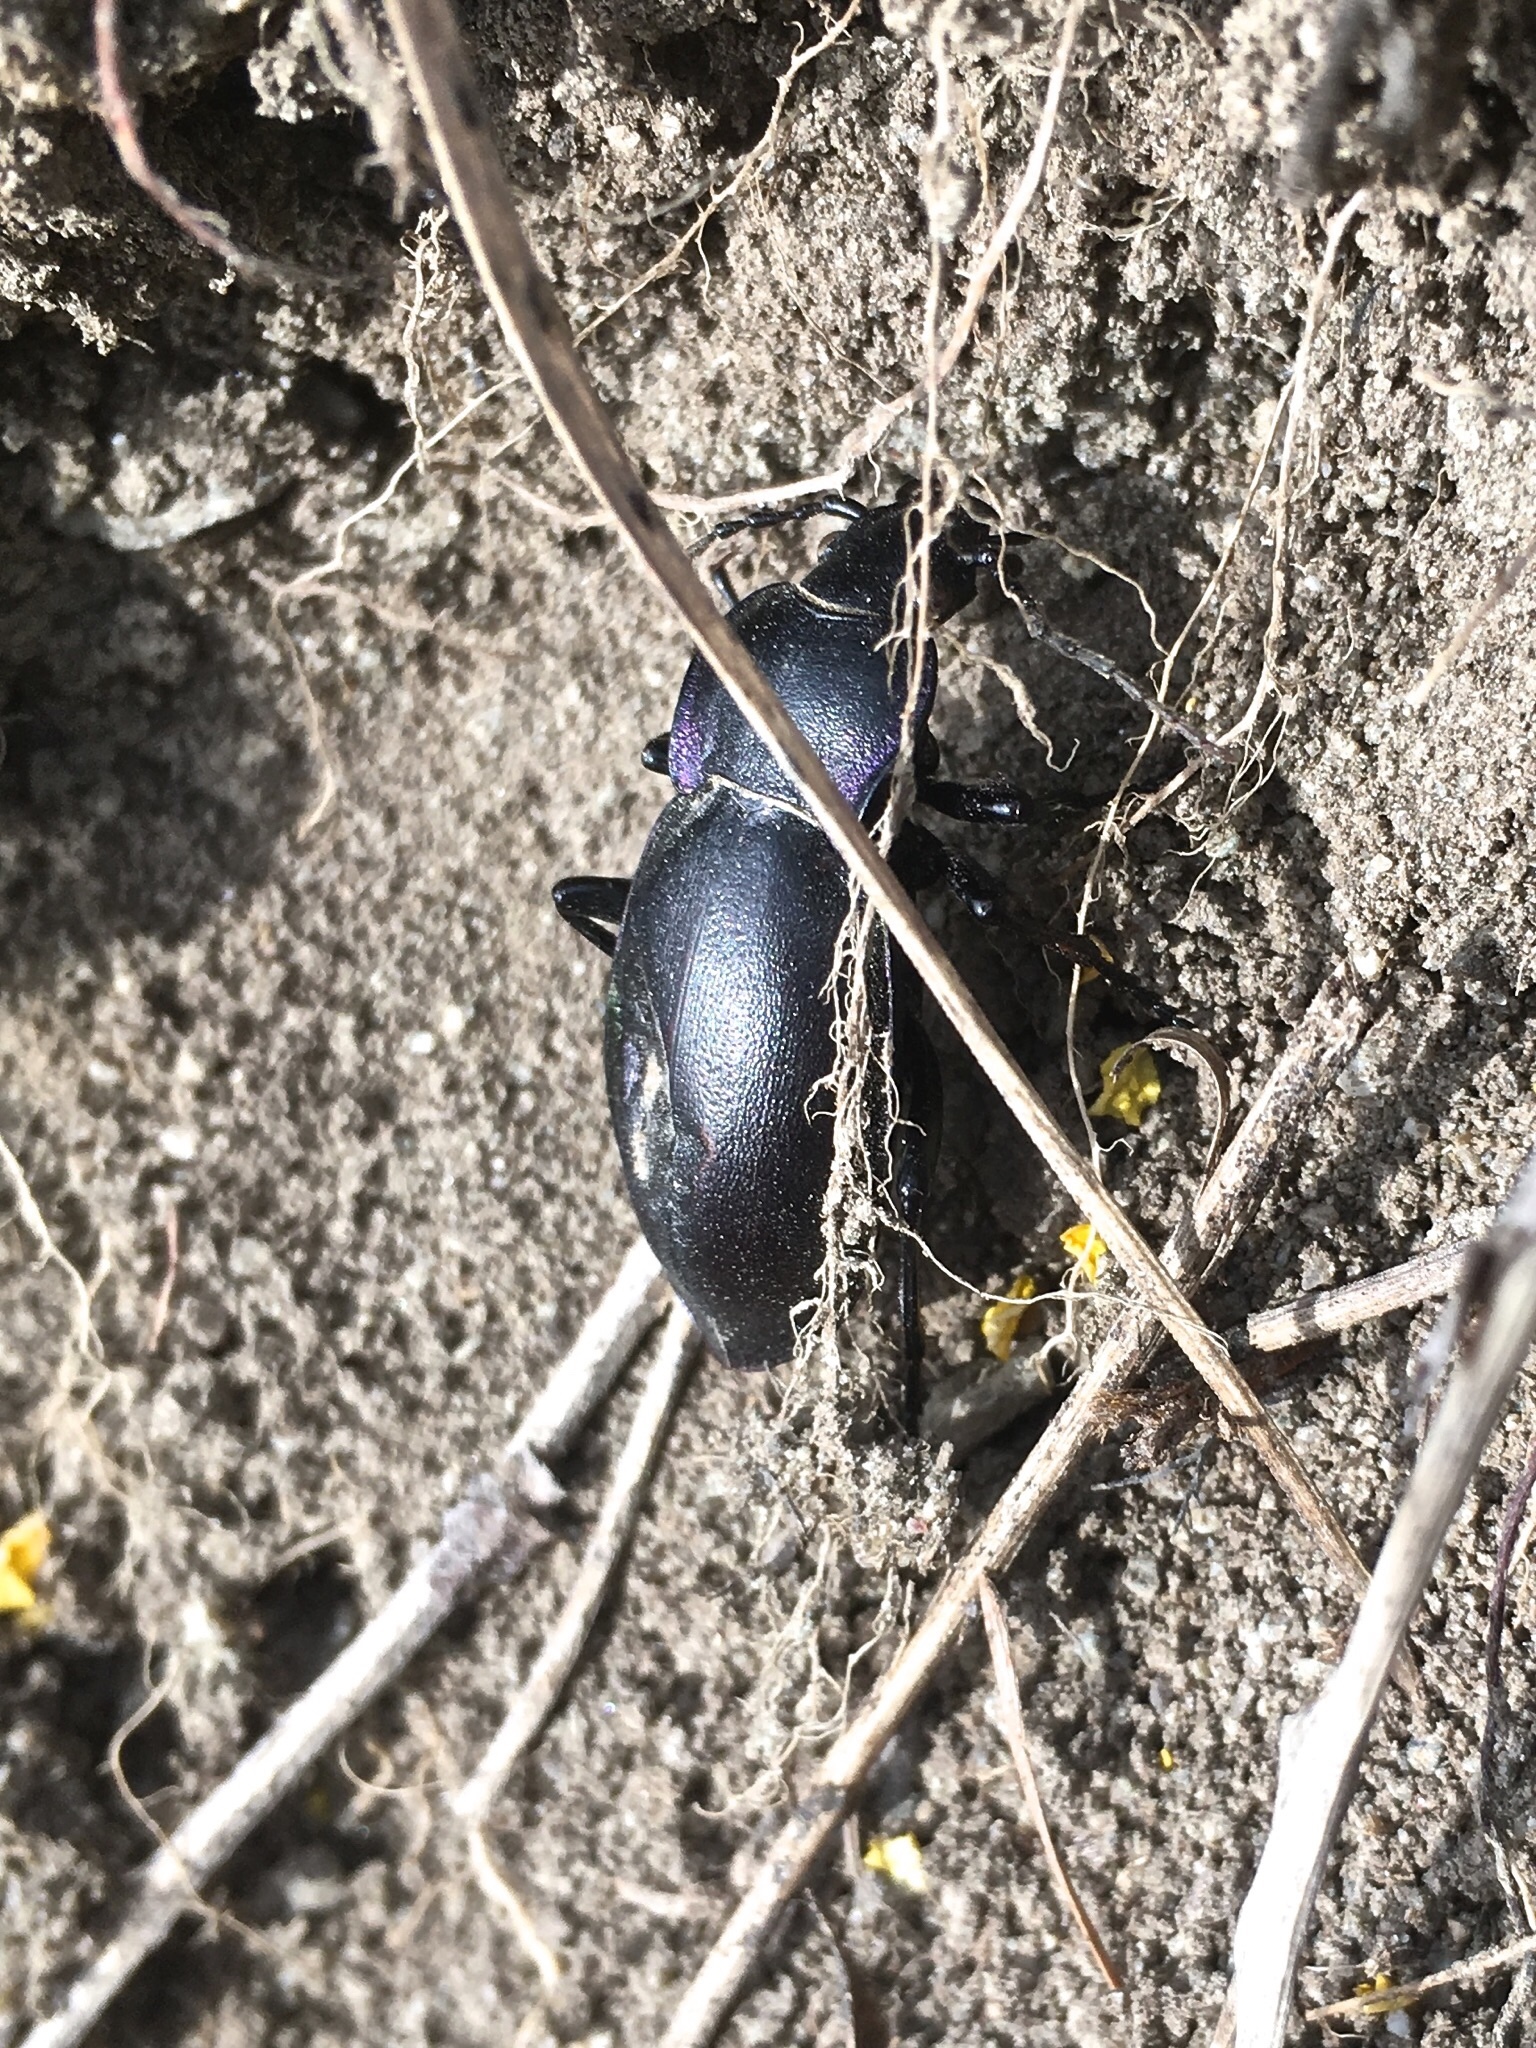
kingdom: Animalia
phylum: Arthropoda
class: Insecta
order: Coleoptera
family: Carabidae
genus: Carabus
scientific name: Carabus germarii
